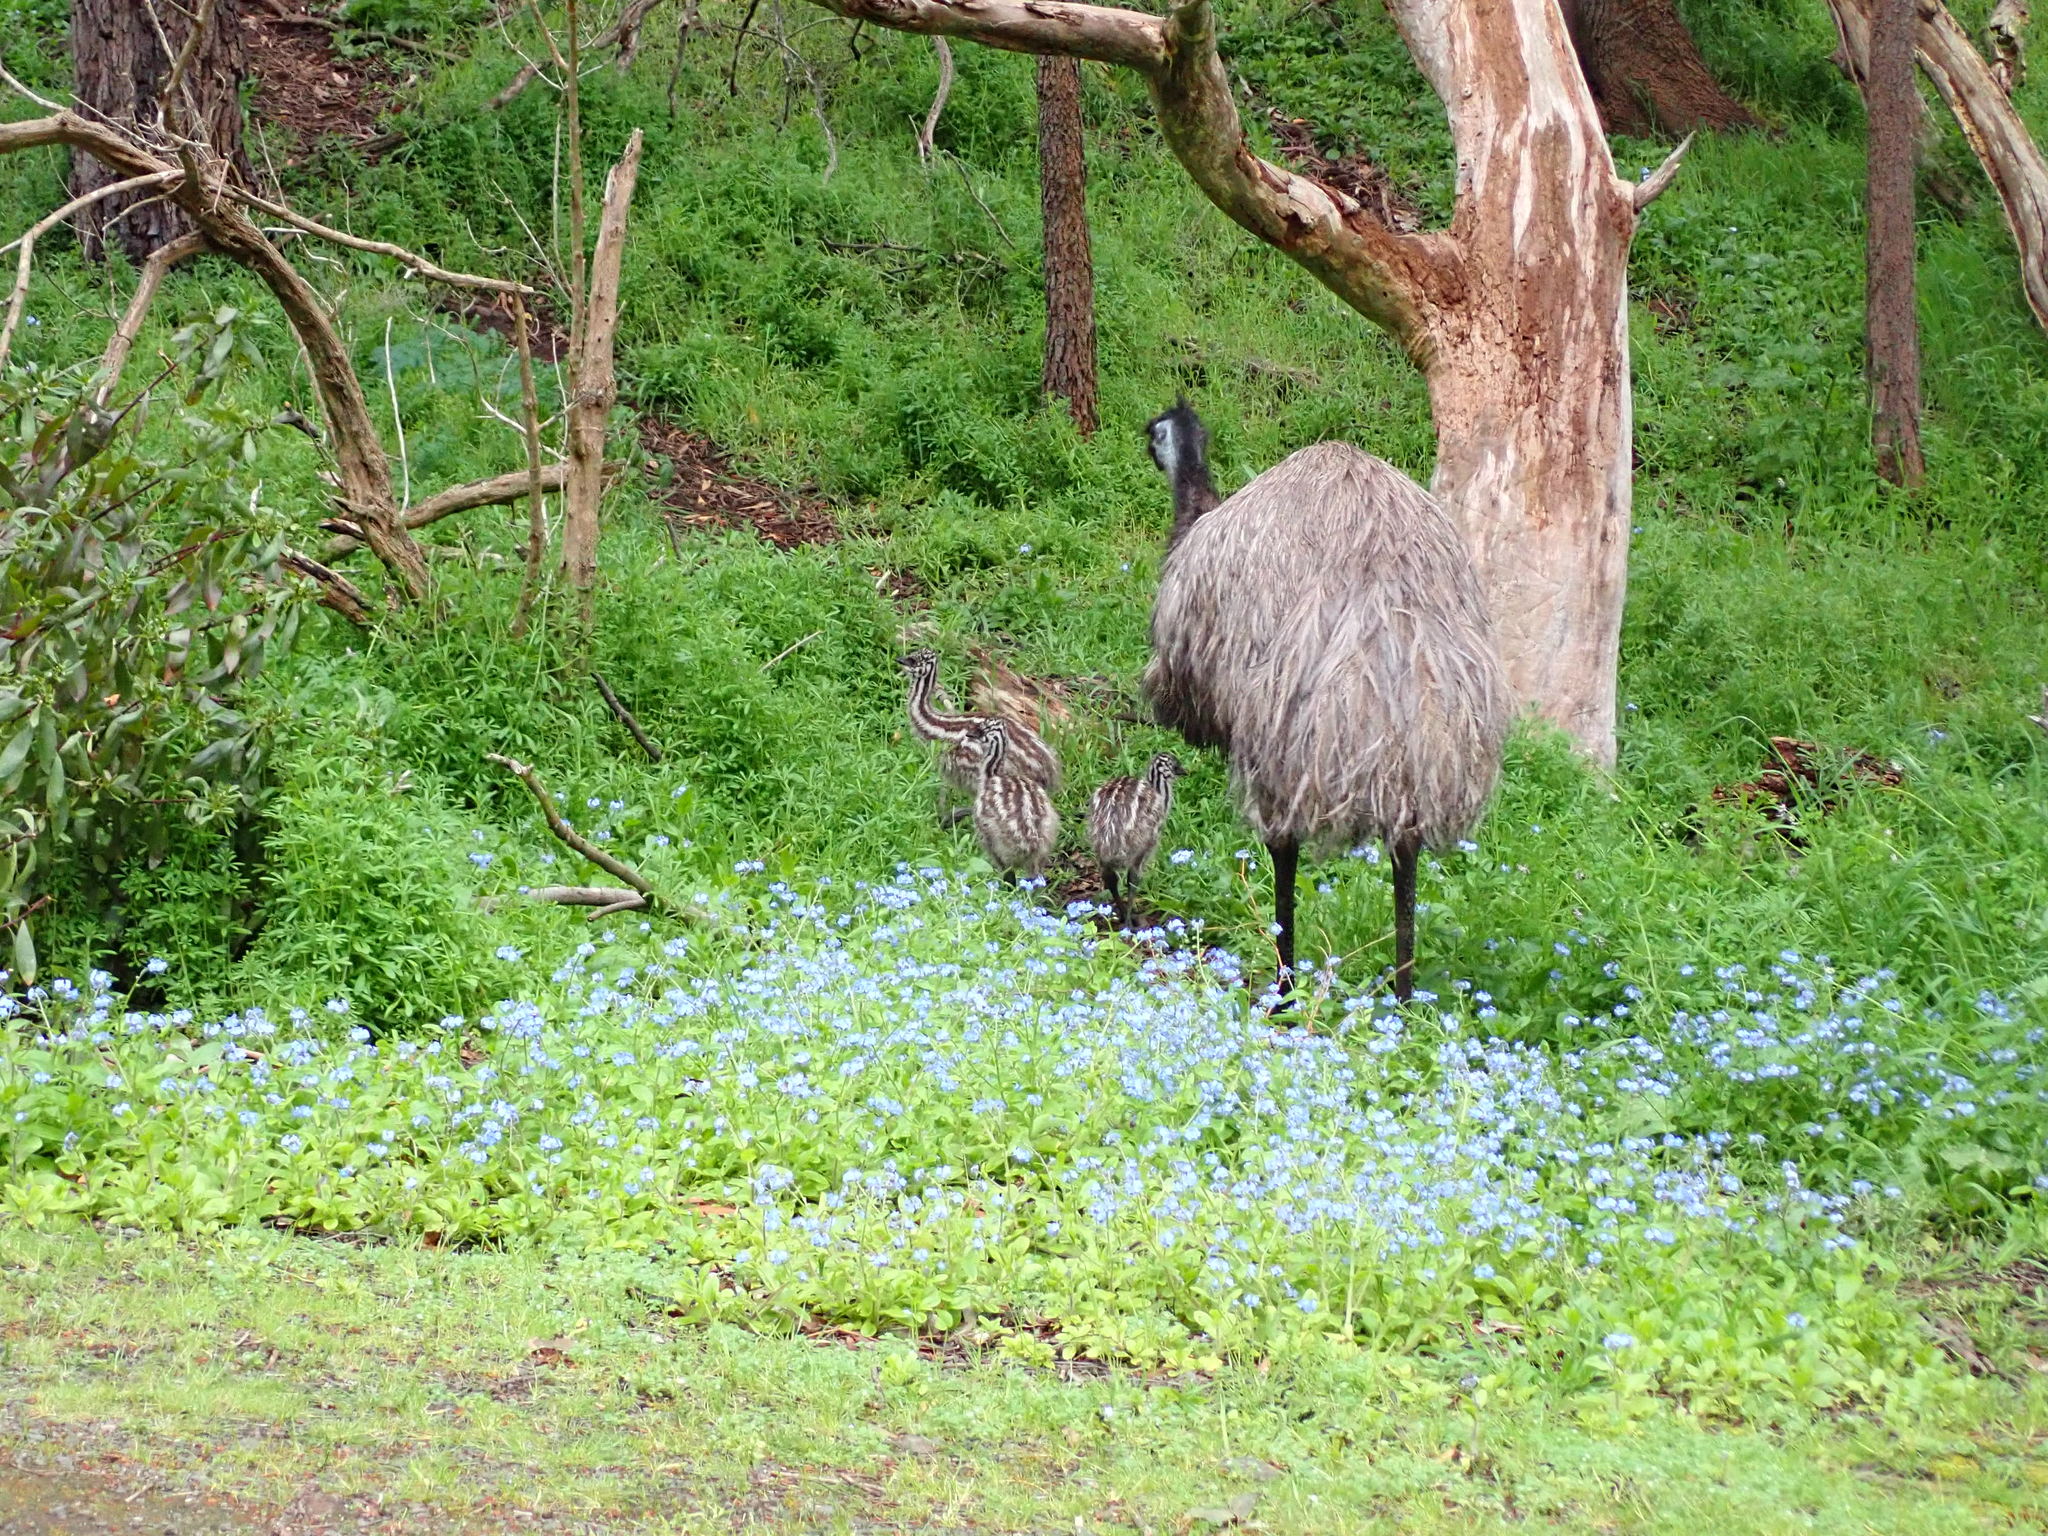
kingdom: Animalia
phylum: Chordata
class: Aves
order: Casuariiformes
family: Dromaiidae
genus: Dromaius
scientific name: Dromaius novaehollandiae
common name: Emu
